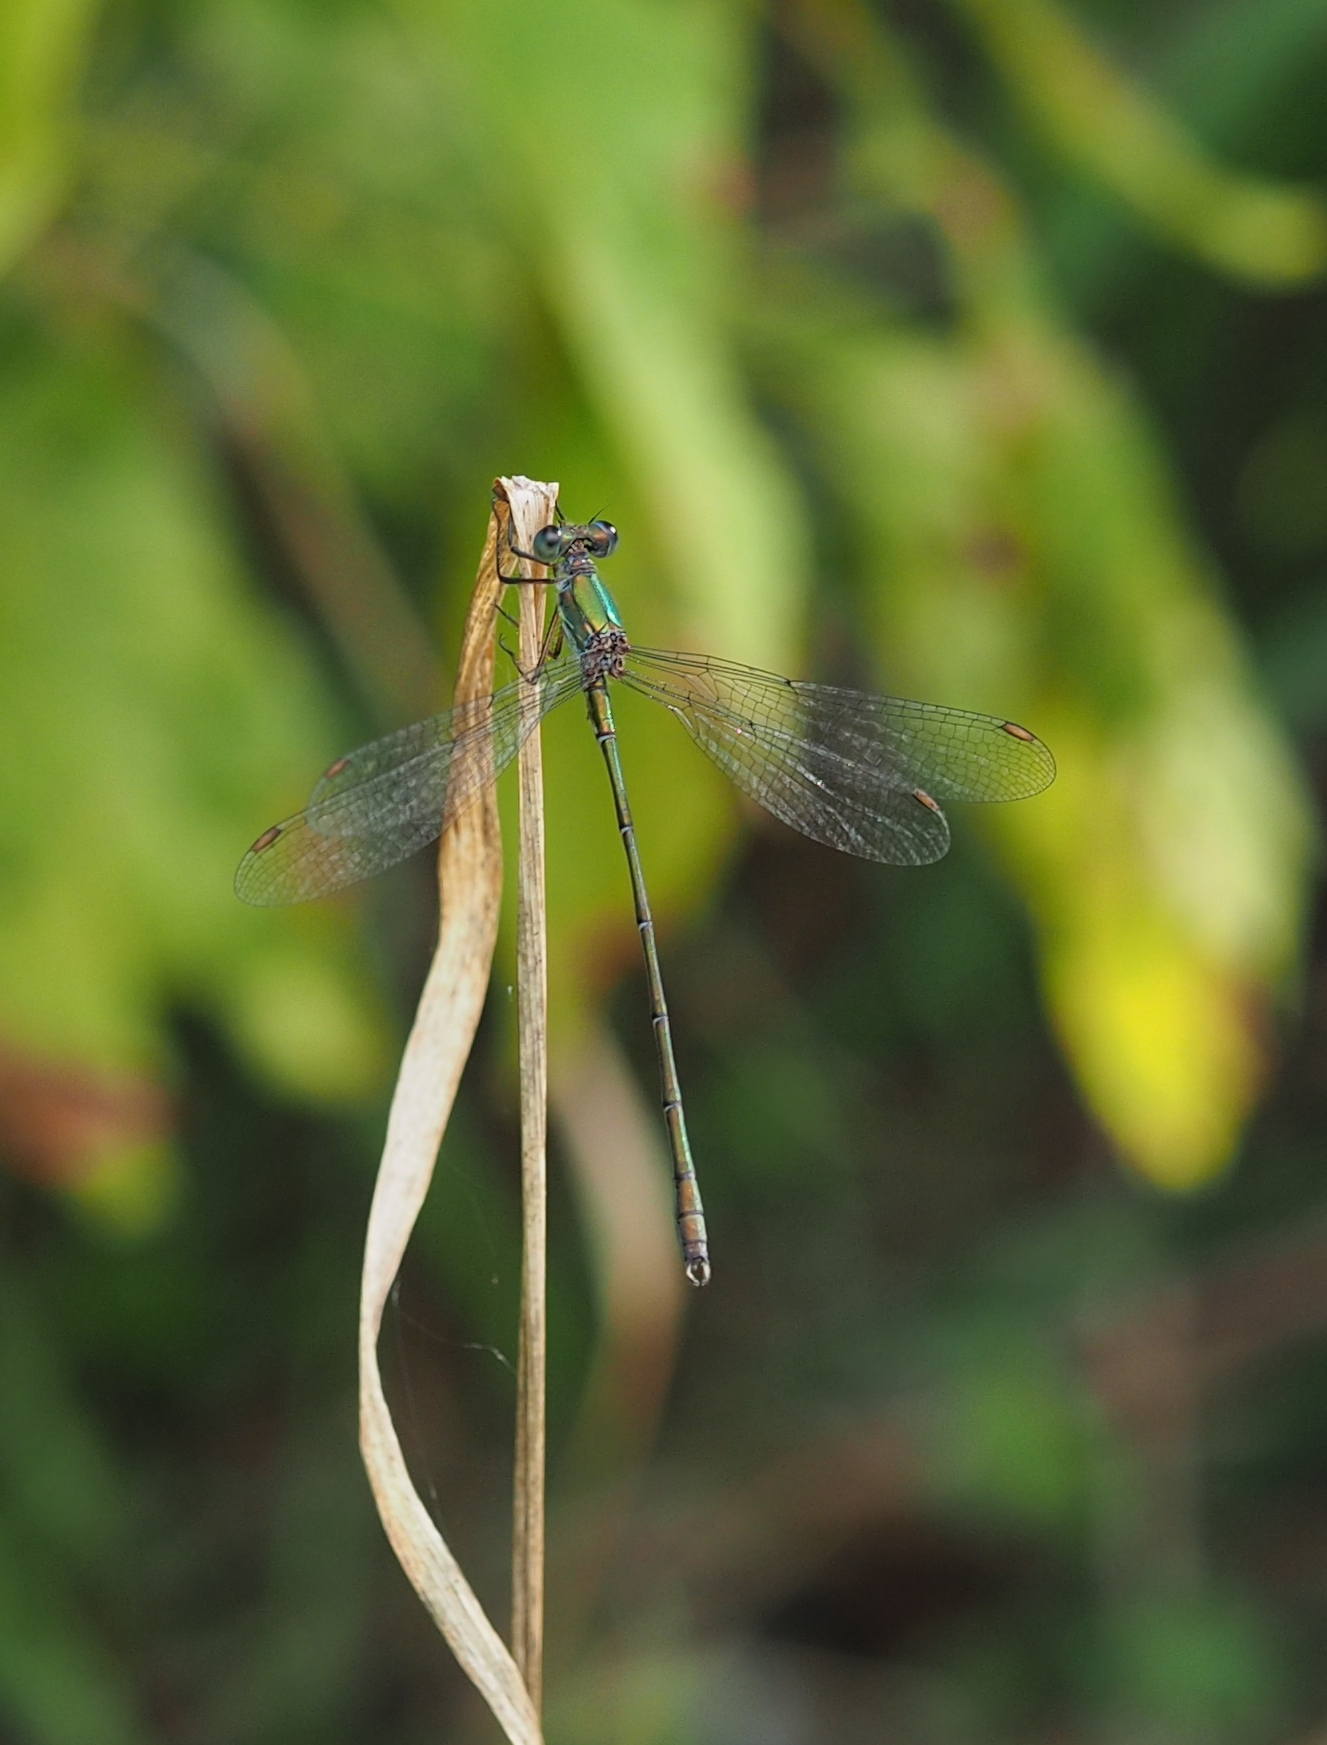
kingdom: Animalia
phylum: Arthropoda
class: Insecta
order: Odonata
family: Lestidae
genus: Chalcolestes
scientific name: Chalcolestes viridis
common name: Green emerald damselfly
